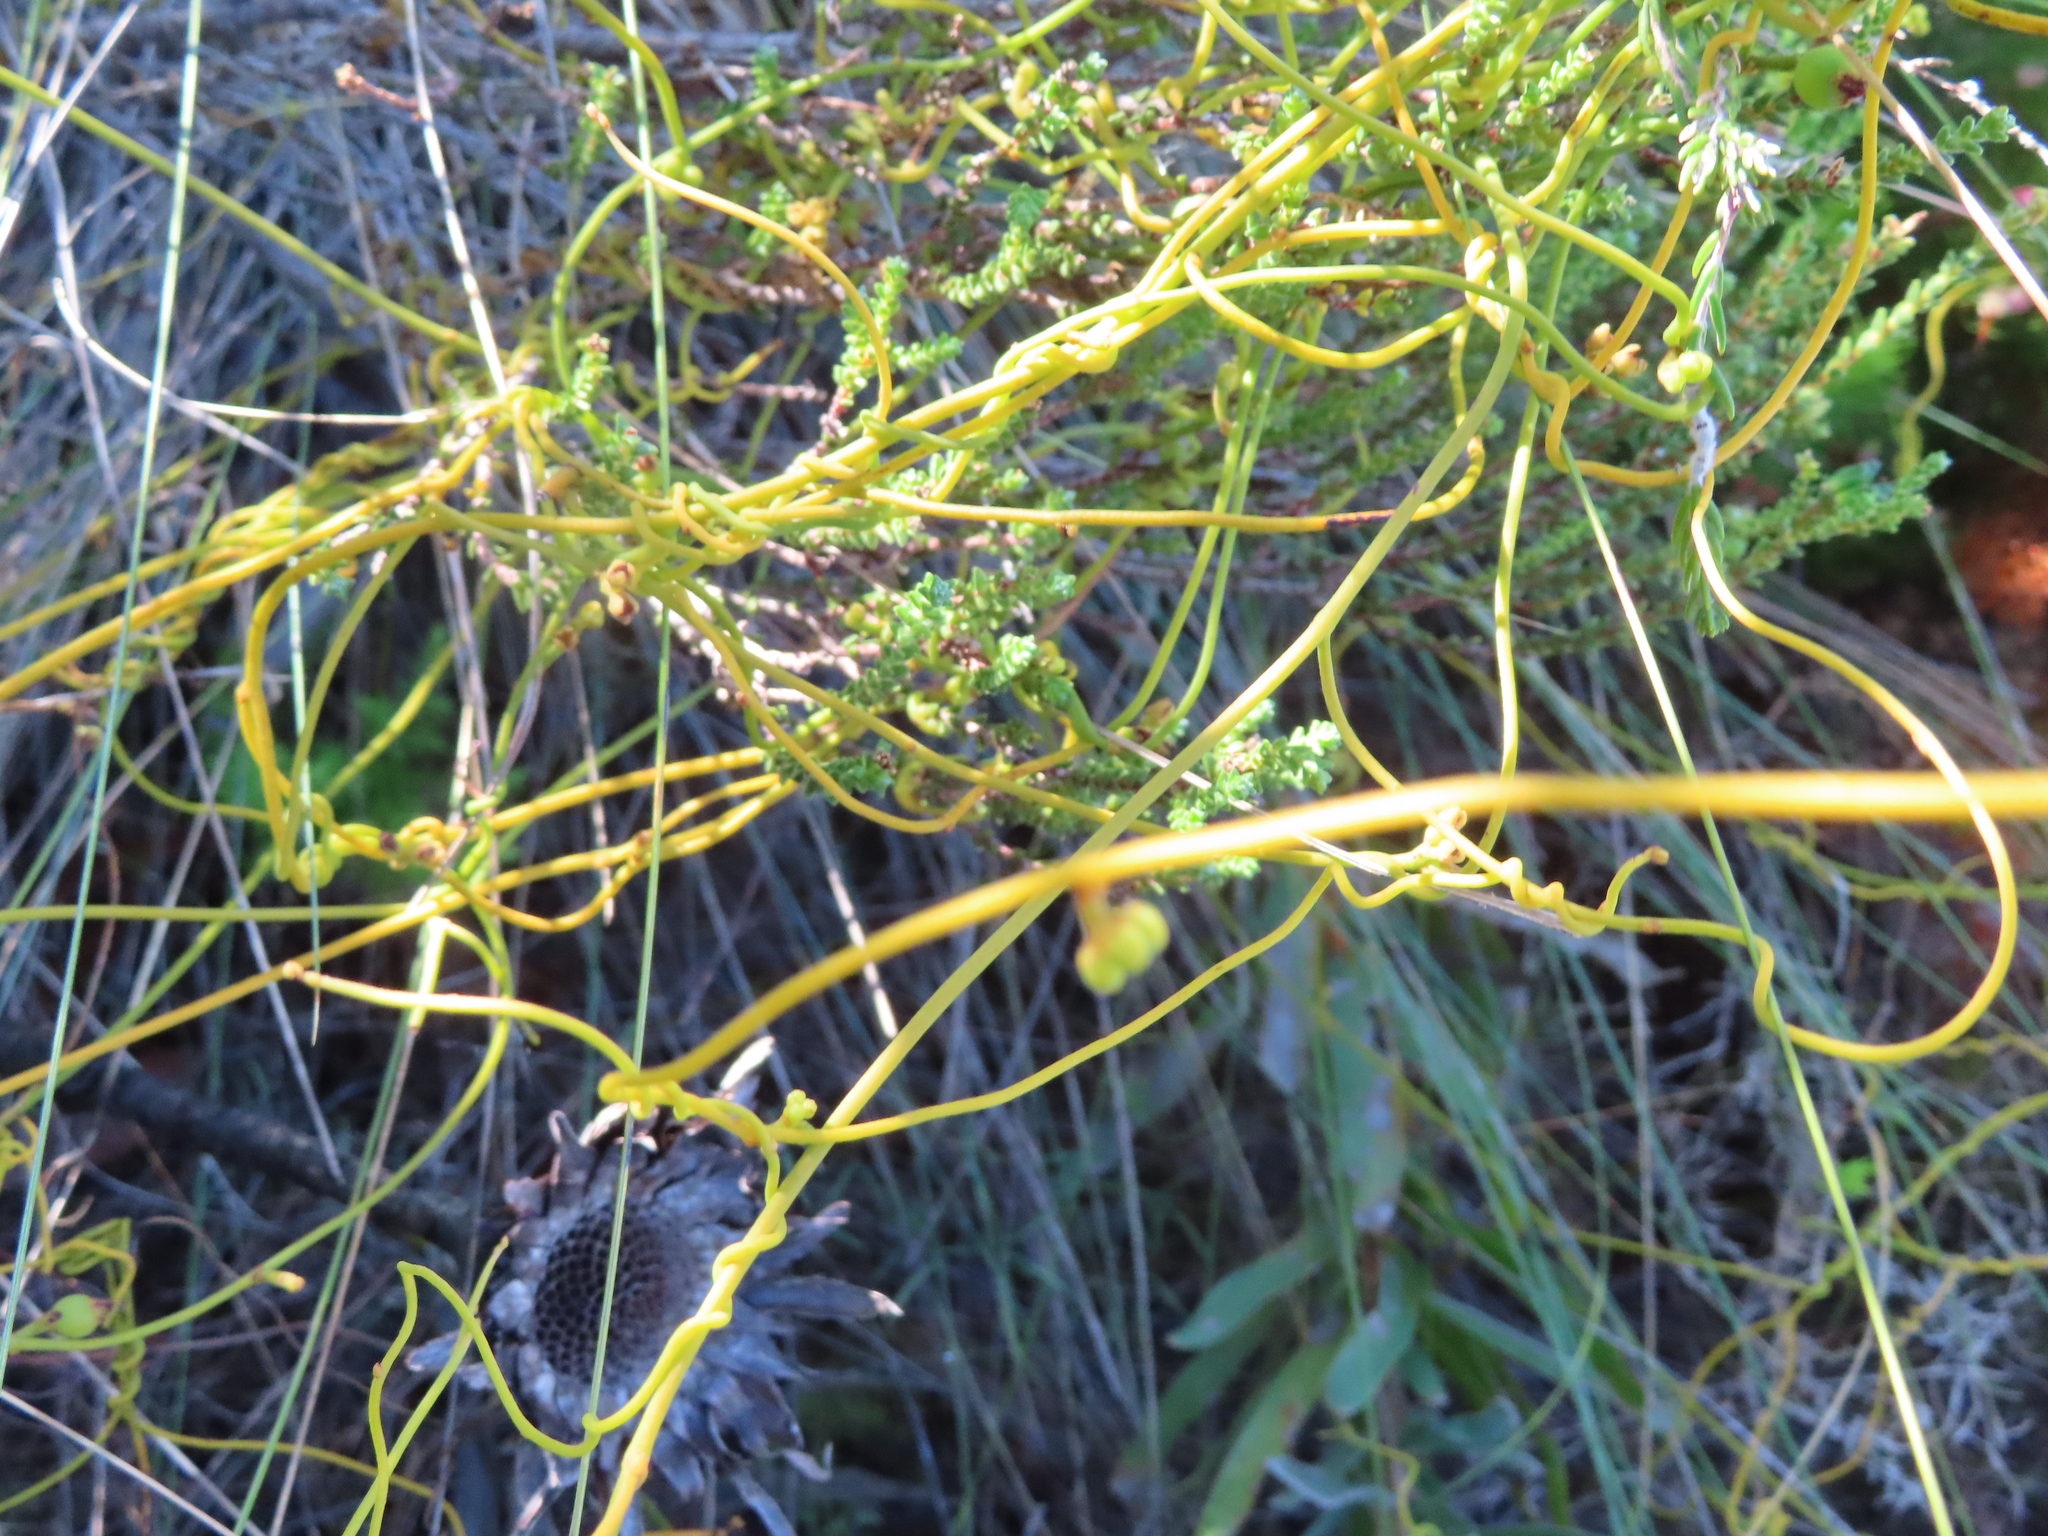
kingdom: Plantae
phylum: Tracheophyta
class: Magnoliopsida
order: Laurales
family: Lauraceae
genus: Cassytha
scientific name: Cassytha ciliolata
